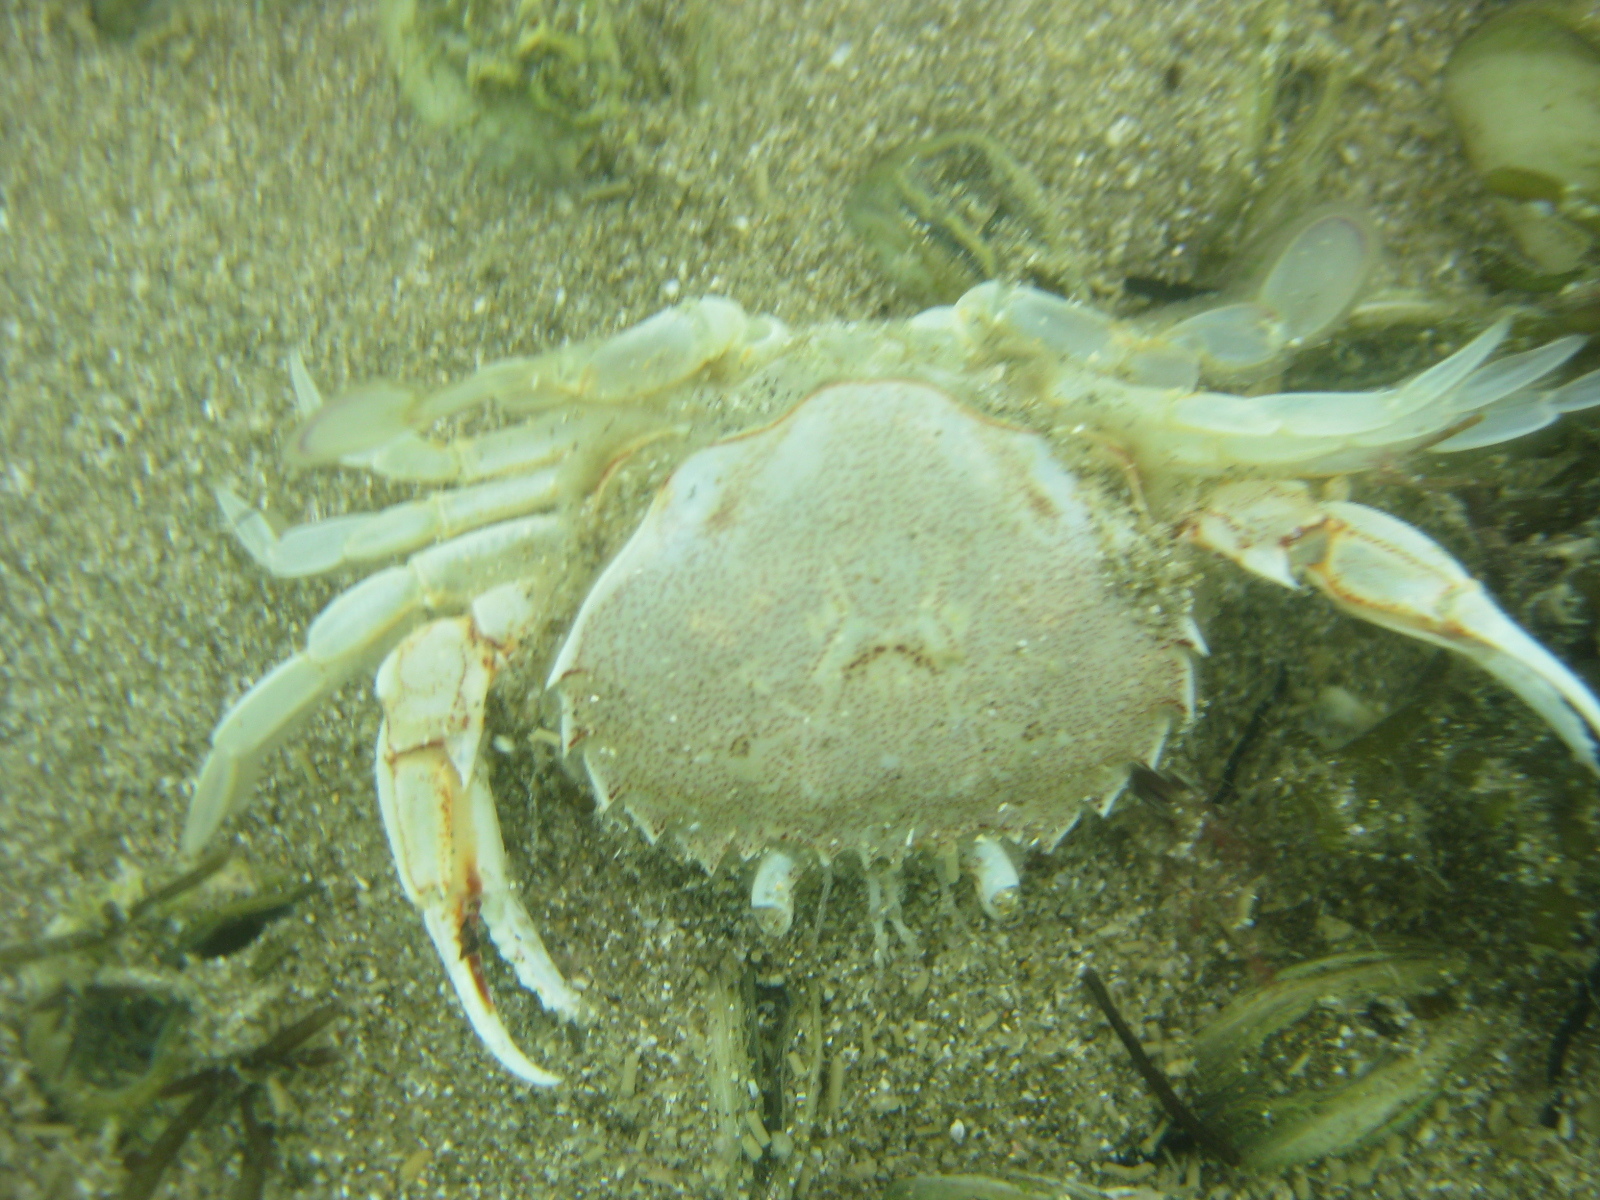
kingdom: Animalia
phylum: Arthropoda
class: Malacostraca
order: Decapoda
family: Ovalipidae
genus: Ovalipes
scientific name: Ovalipes catharus
